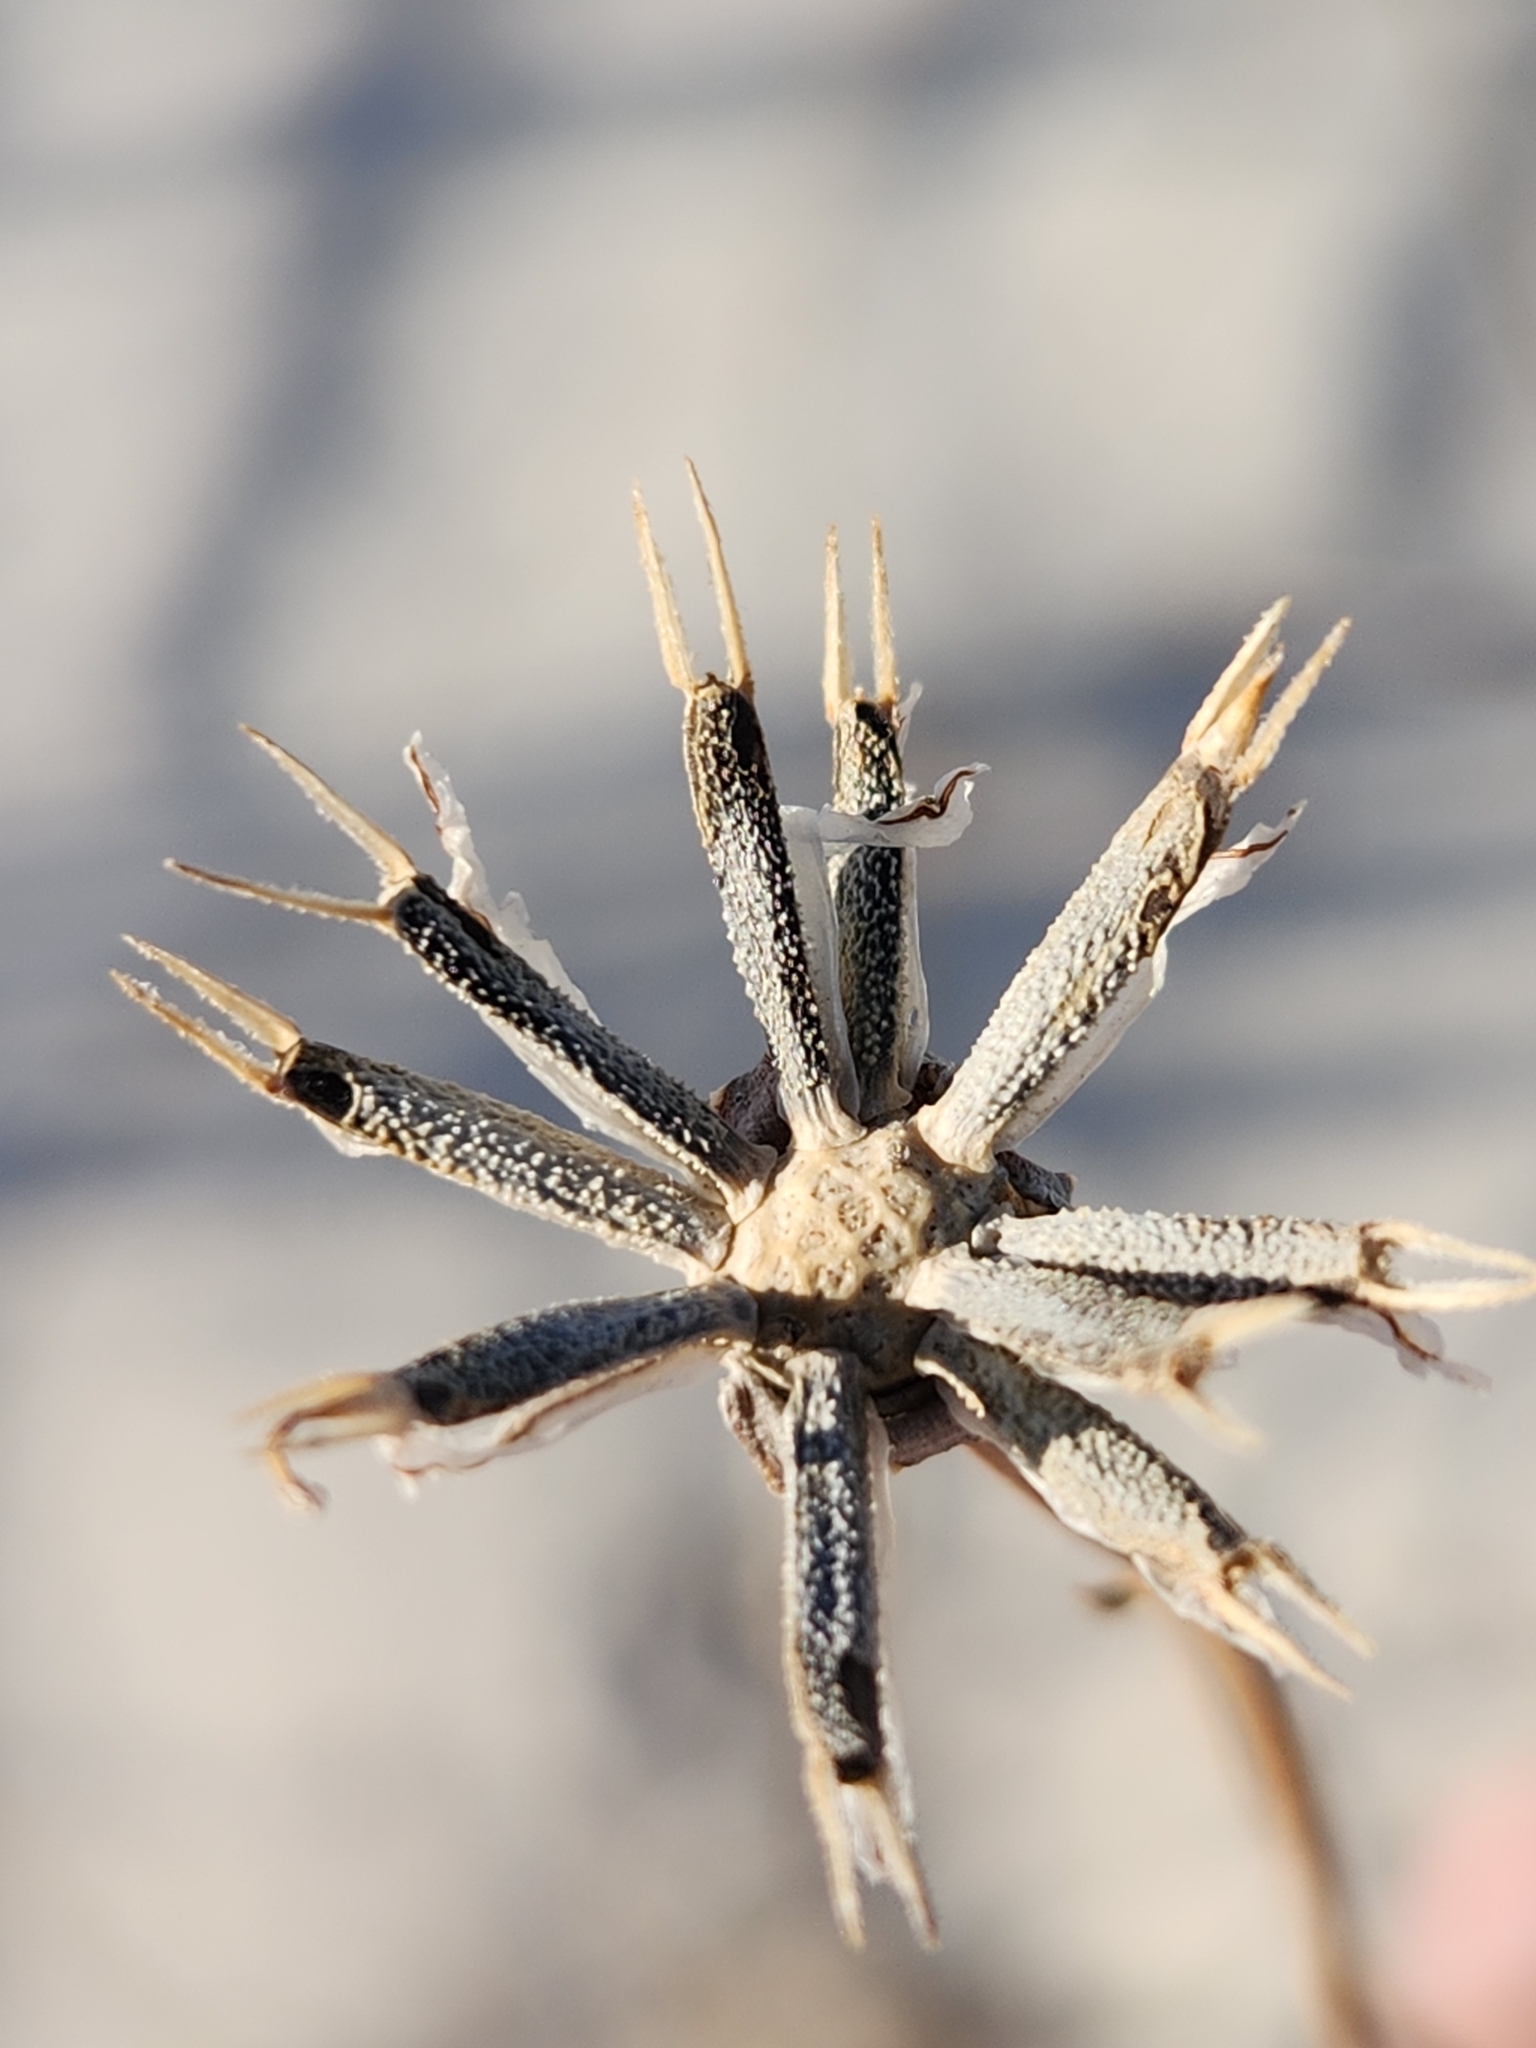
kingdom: Plantae
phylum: Tracheophyta
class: Magnoliopsida
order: Asterales
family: Asteraceae
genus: Thelesperma
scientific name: Thelesperma megapotamicum
